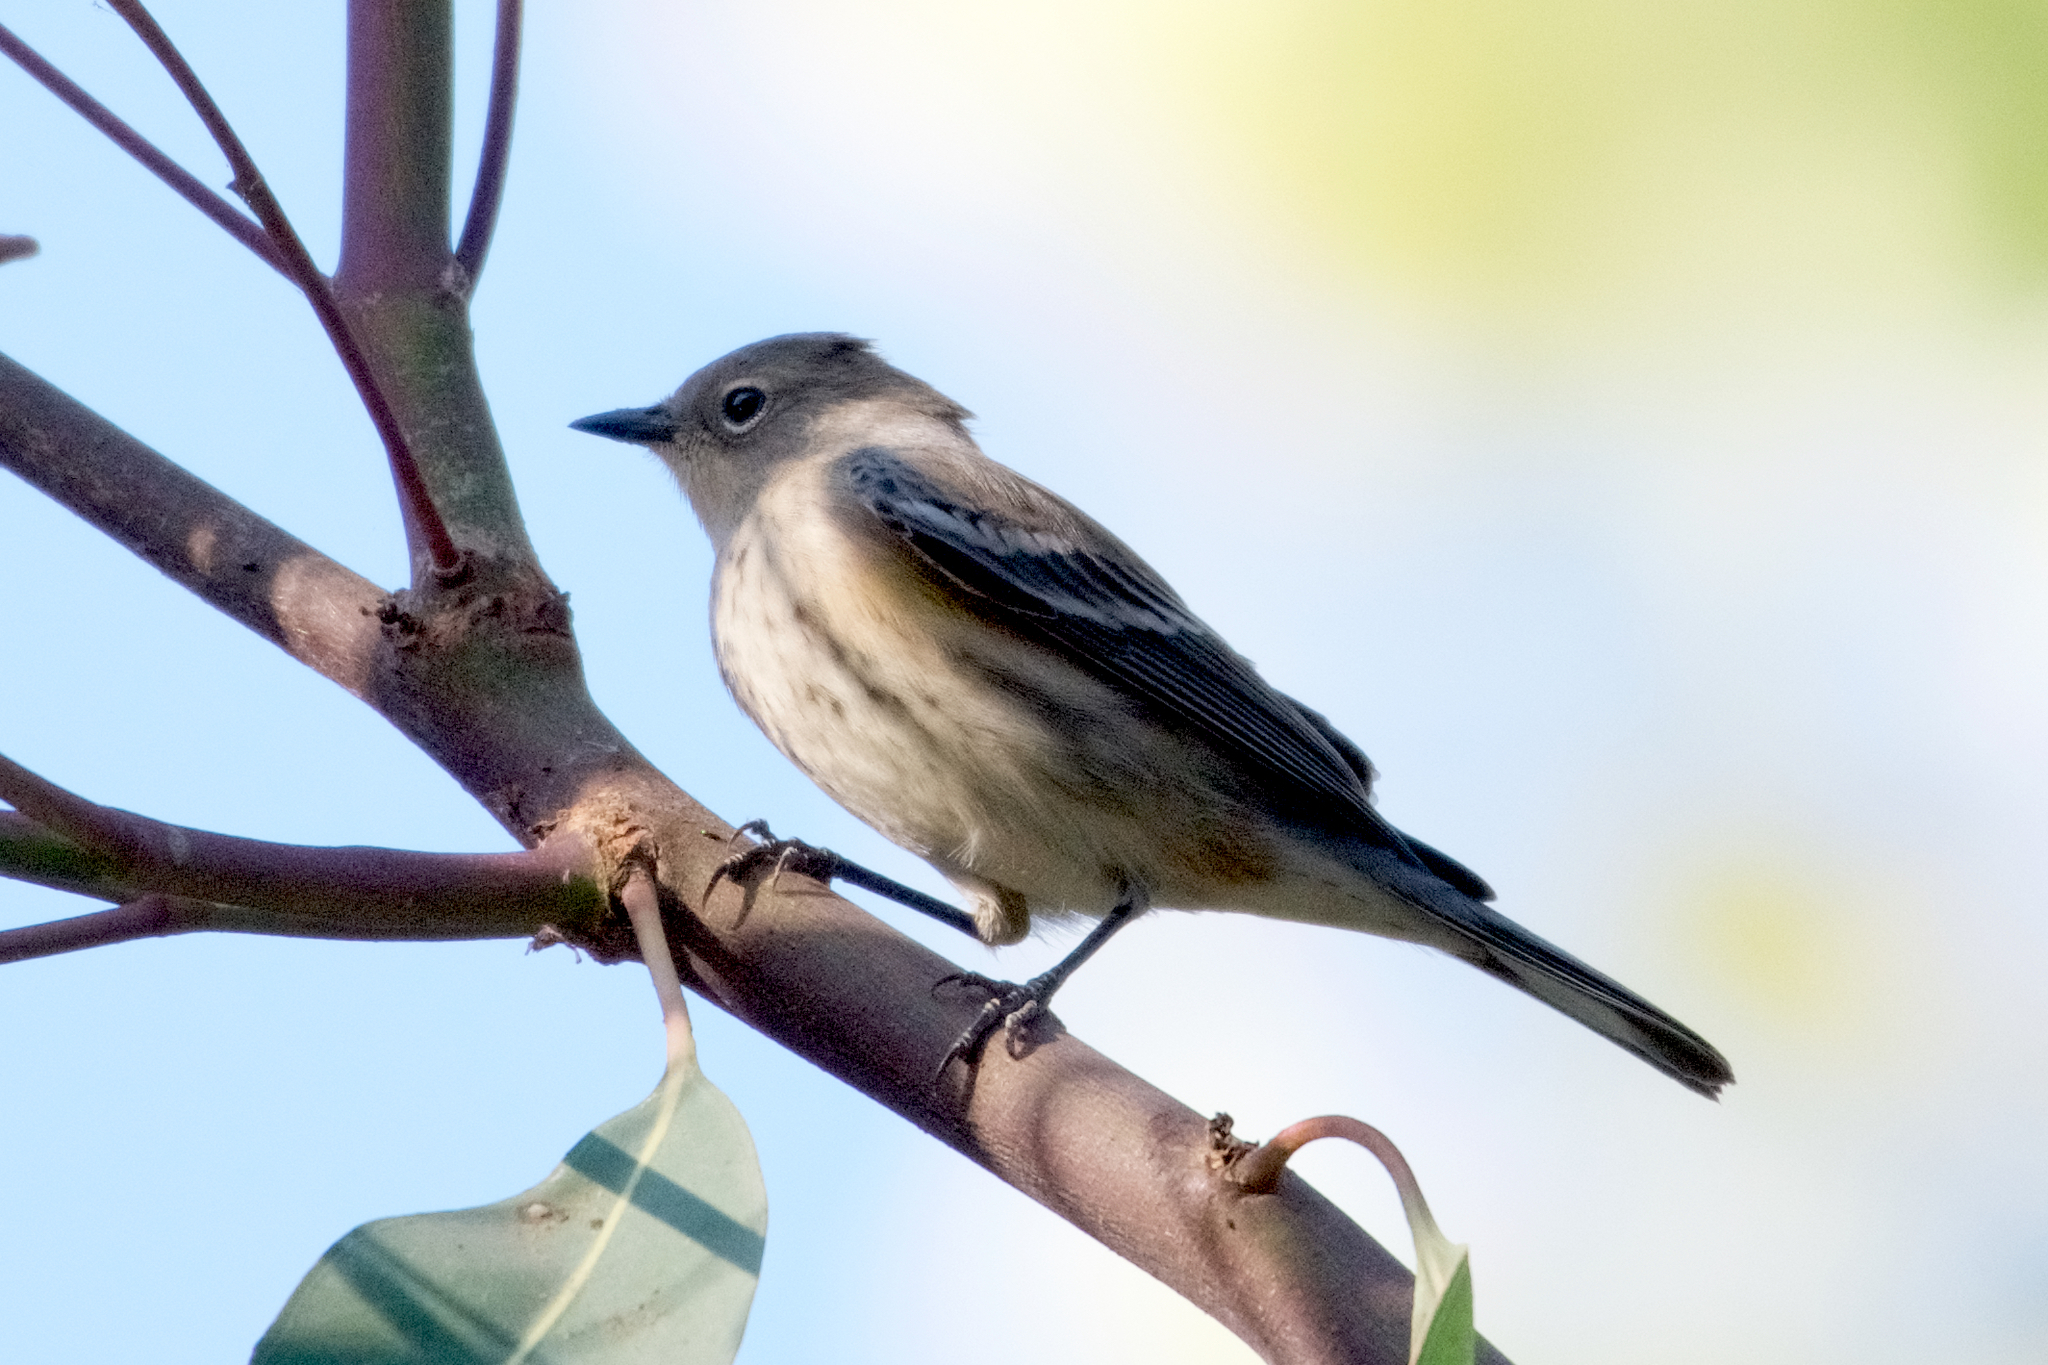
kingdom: Animalia
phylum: Chordata
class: Aves
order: Passeriformes
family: Parulidae
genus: Setophaga
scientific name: Setophaga coronata
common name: Myrtle warbler
